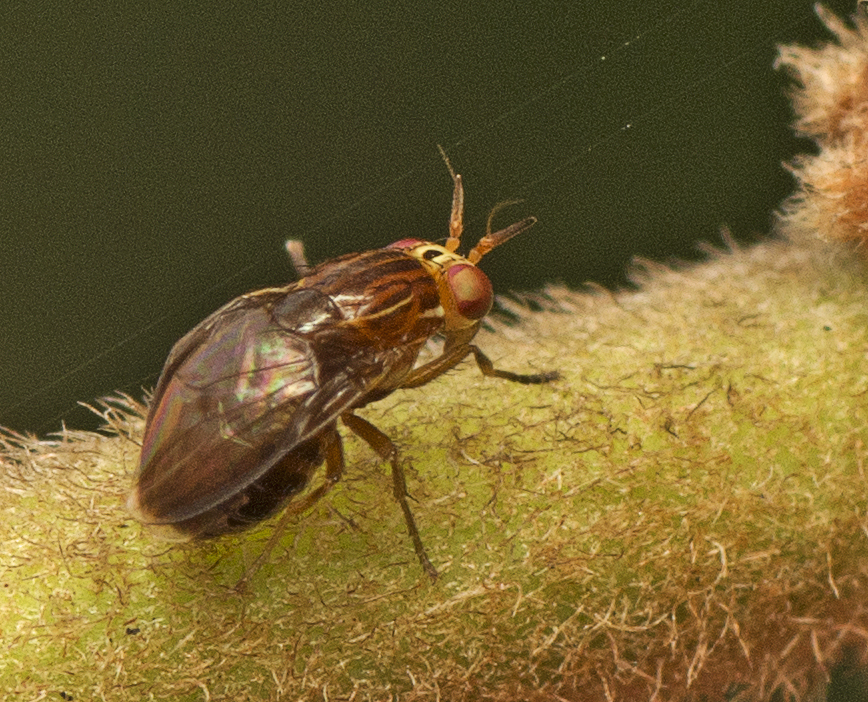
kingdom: Animalia
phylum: Arthropoda
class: Insecta
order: Diptera
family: Lauxaniidae
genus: Steganopsis
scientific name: Steganopsis melanogaster
